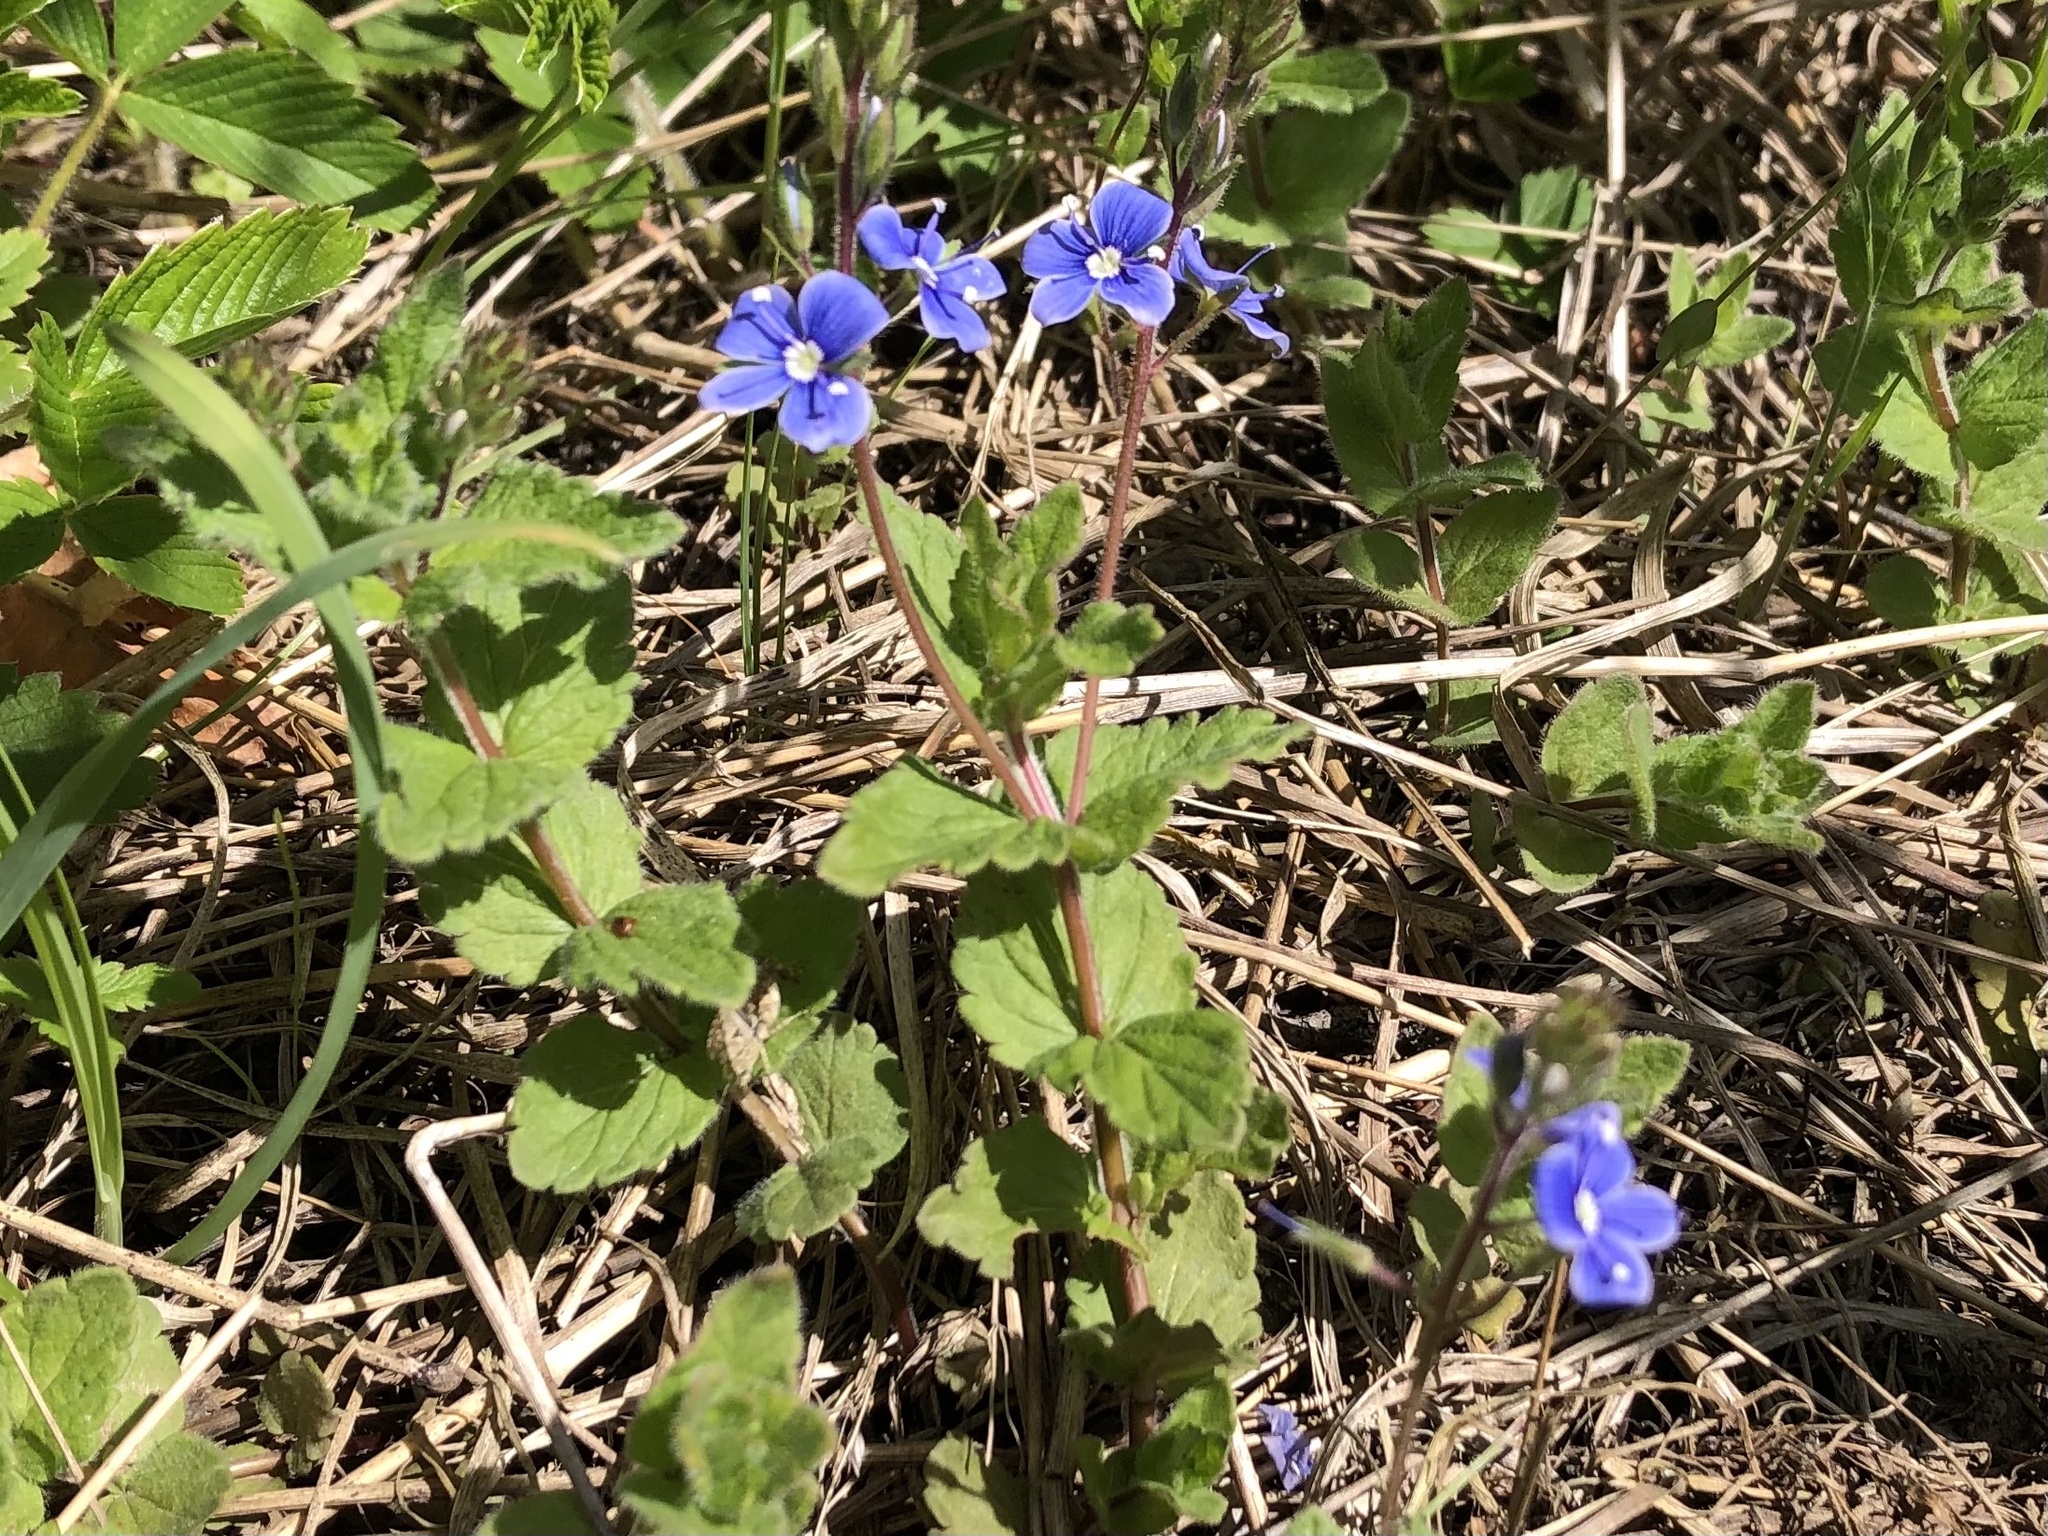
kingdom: Plantae
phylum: Tracheophyta
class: Magnoliopsida
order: Lamiales
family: Plantaginaceae
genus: Veronica
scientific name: Veronica chamaedrys
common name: Germander speedwell
